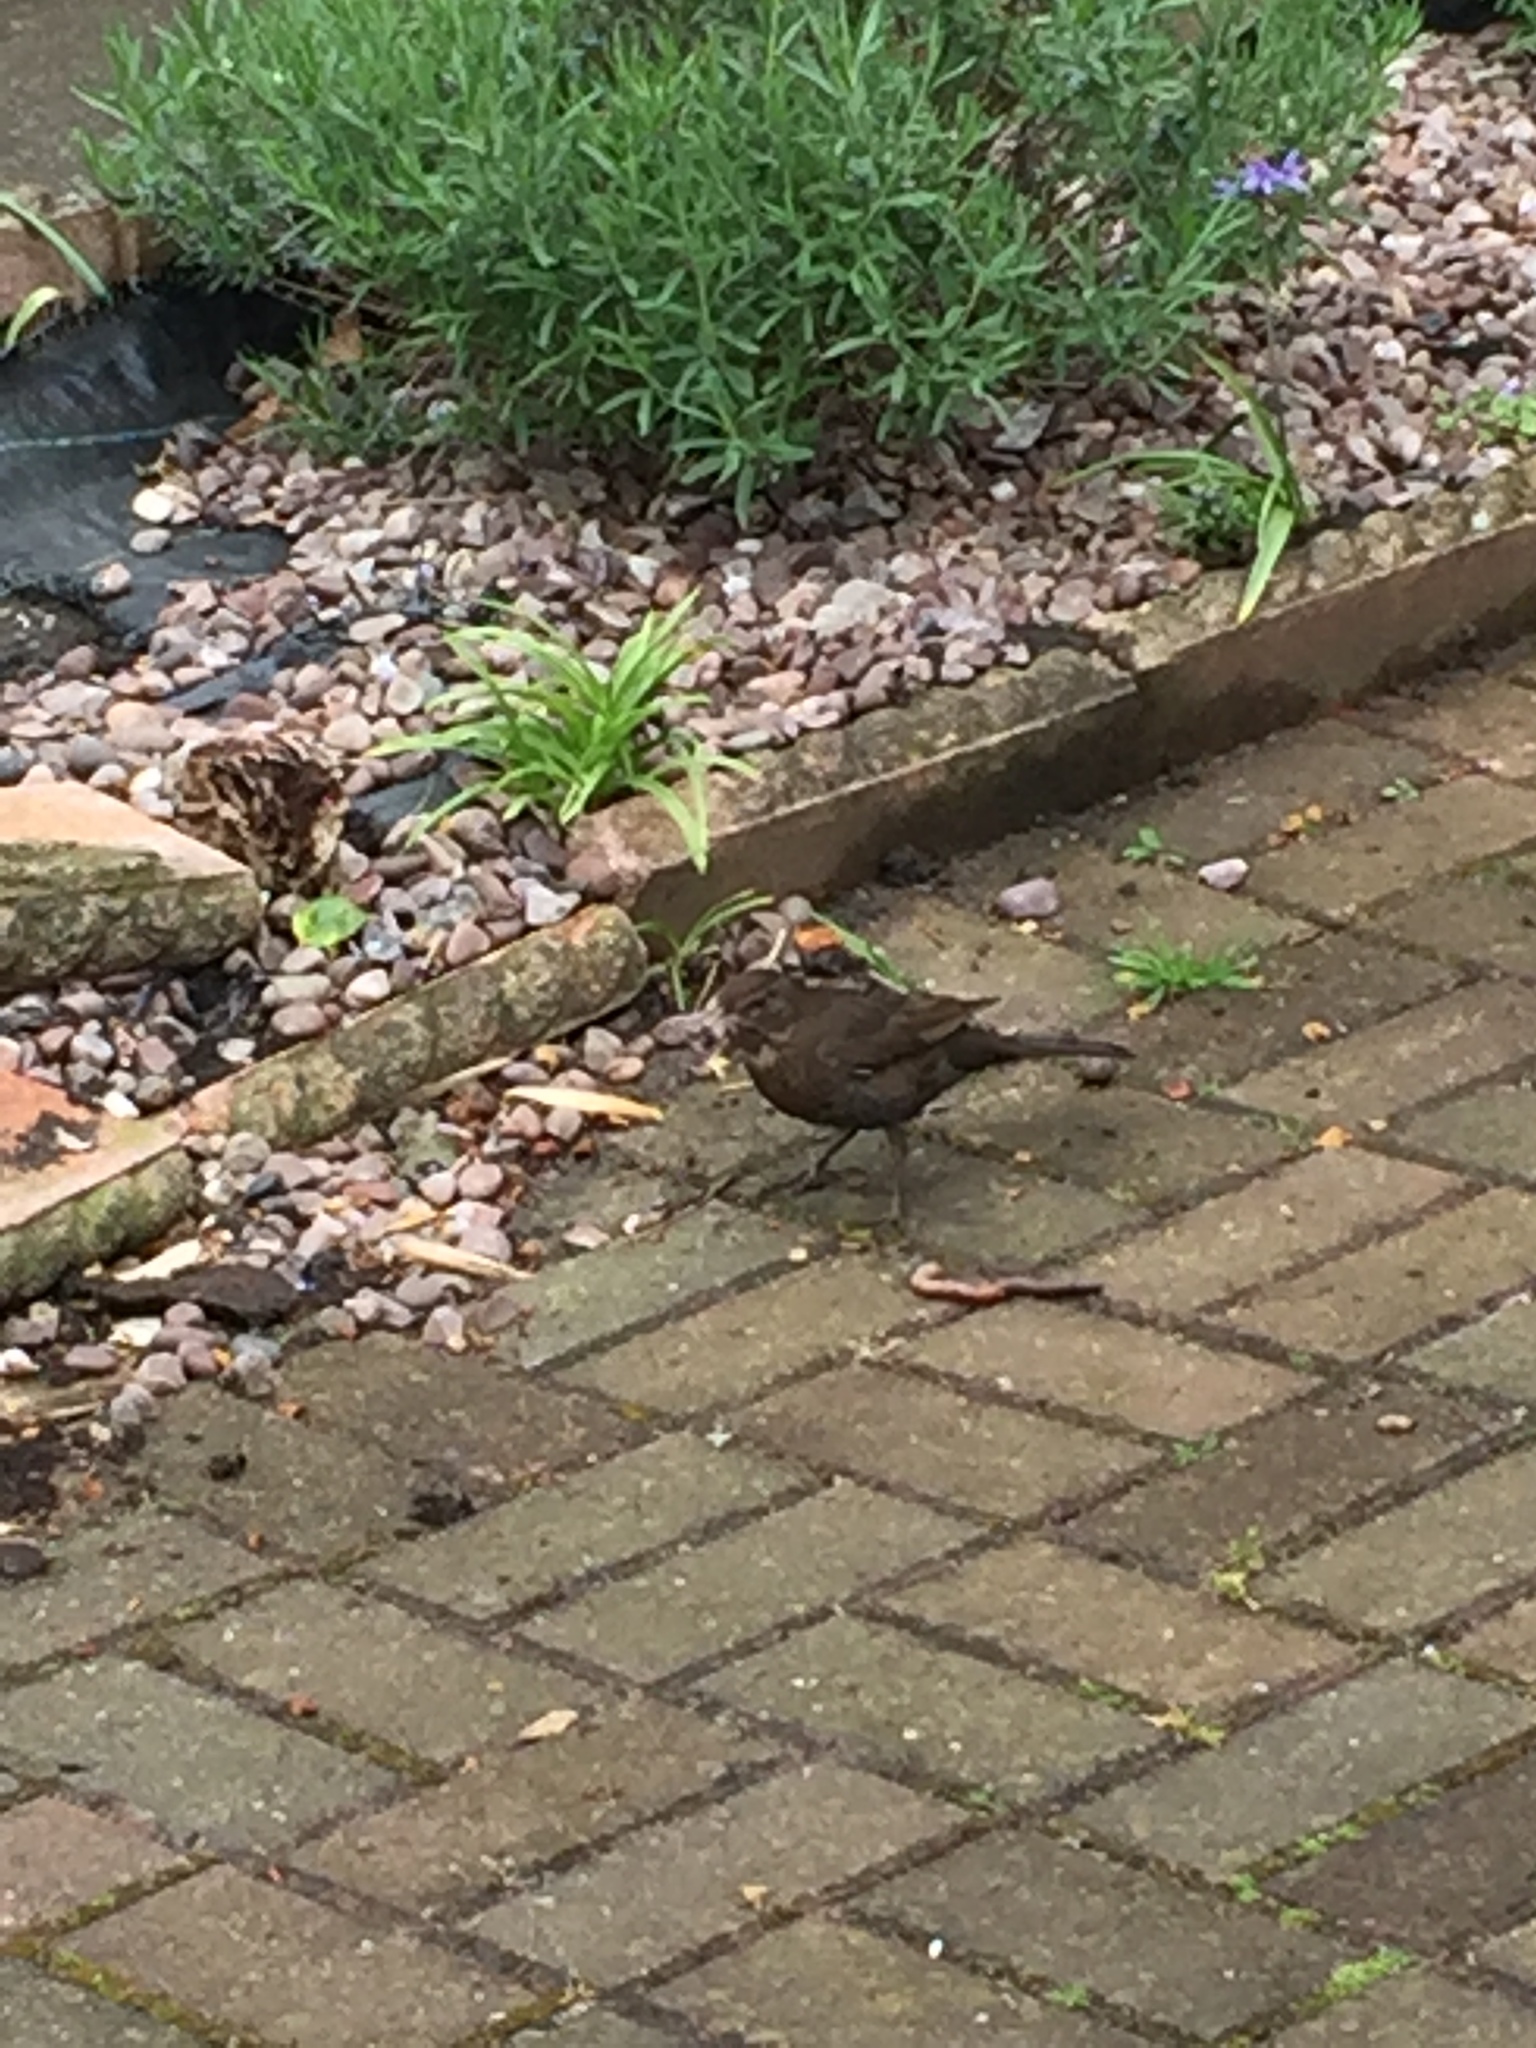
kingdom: Animalia
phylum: Chordata
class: Aves
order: Passeriformes
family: Turdidae
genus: Turdus
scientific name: Turdus merula
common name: Common blackbird
